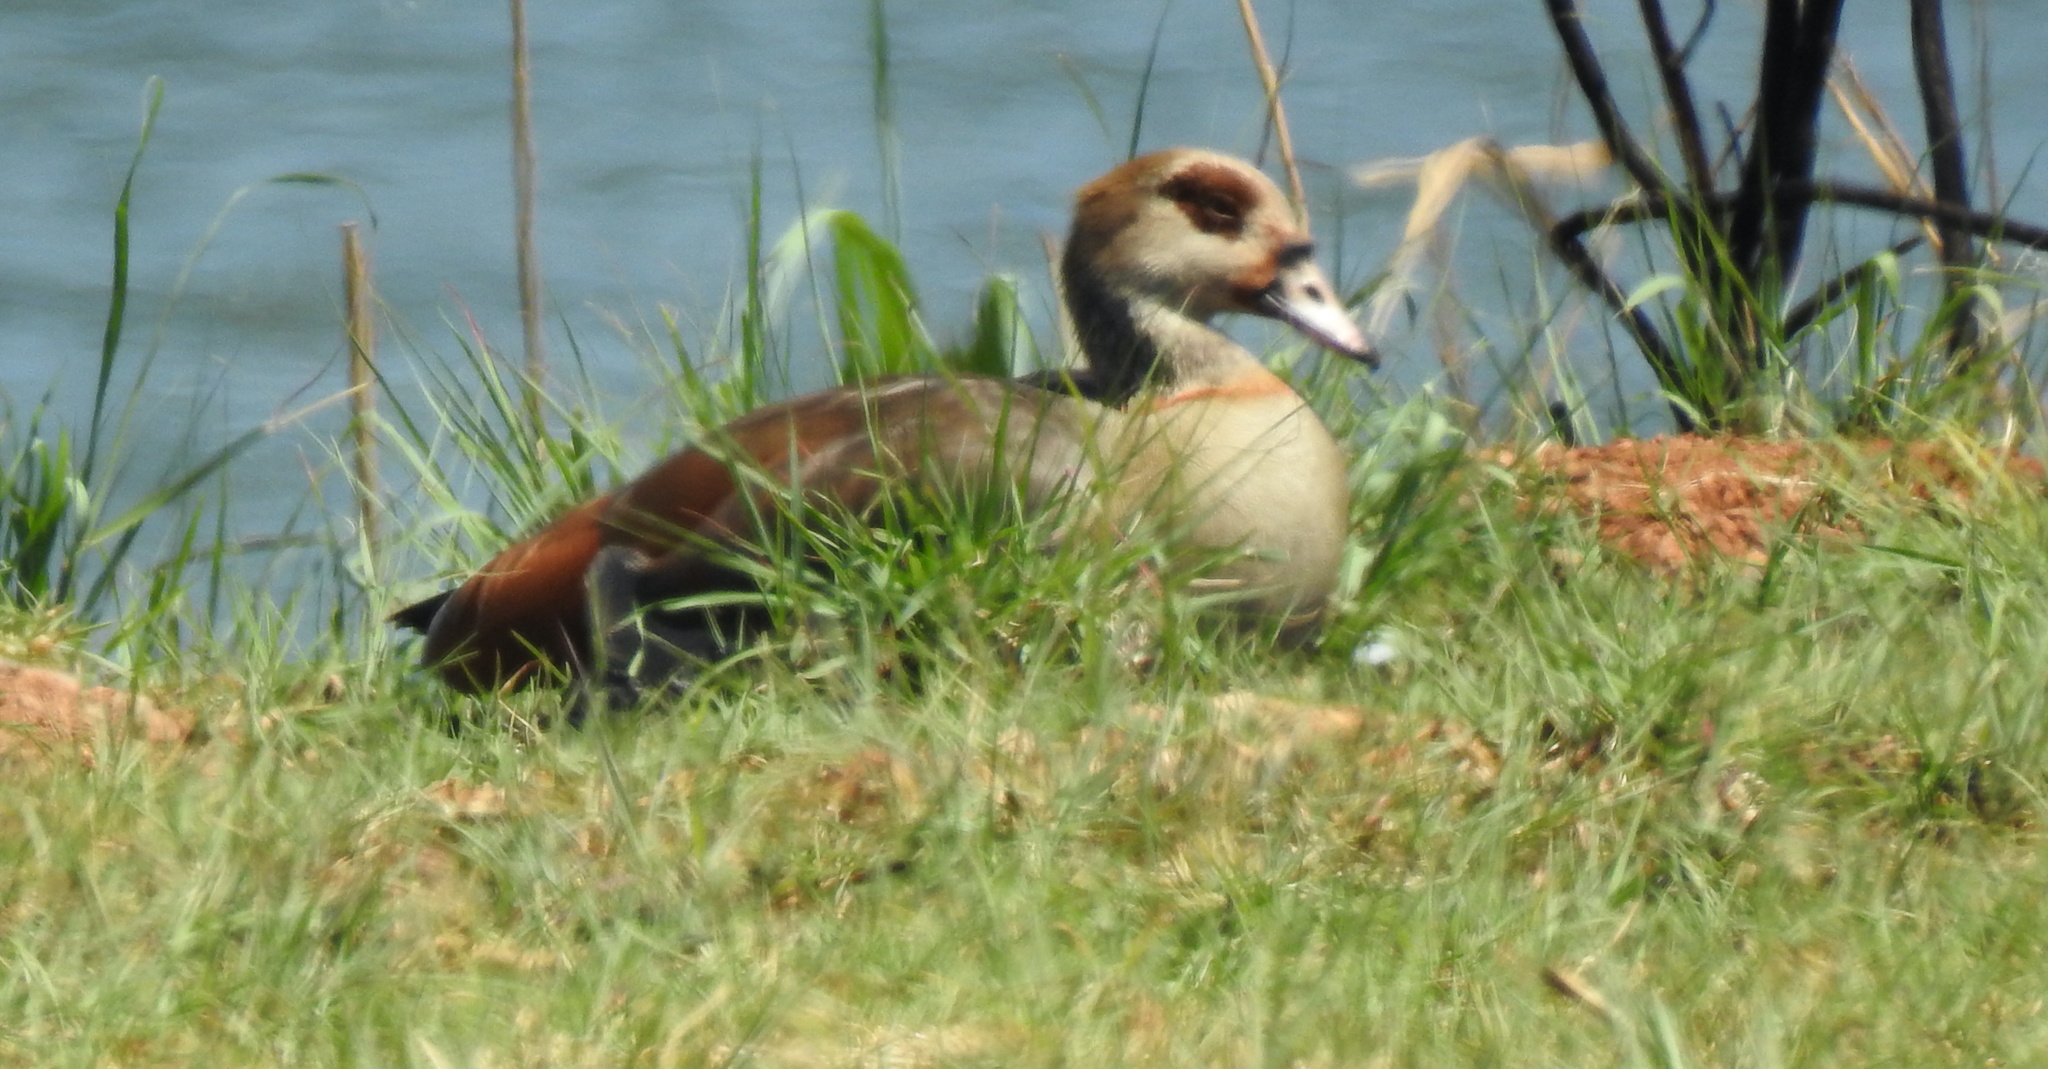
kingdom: Animalia
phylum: Chordata
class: Aves
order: Anseriformes
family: Anatidae
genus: Alopochen
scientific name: Alopochen aegyptiaca
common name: Egyptian goose
